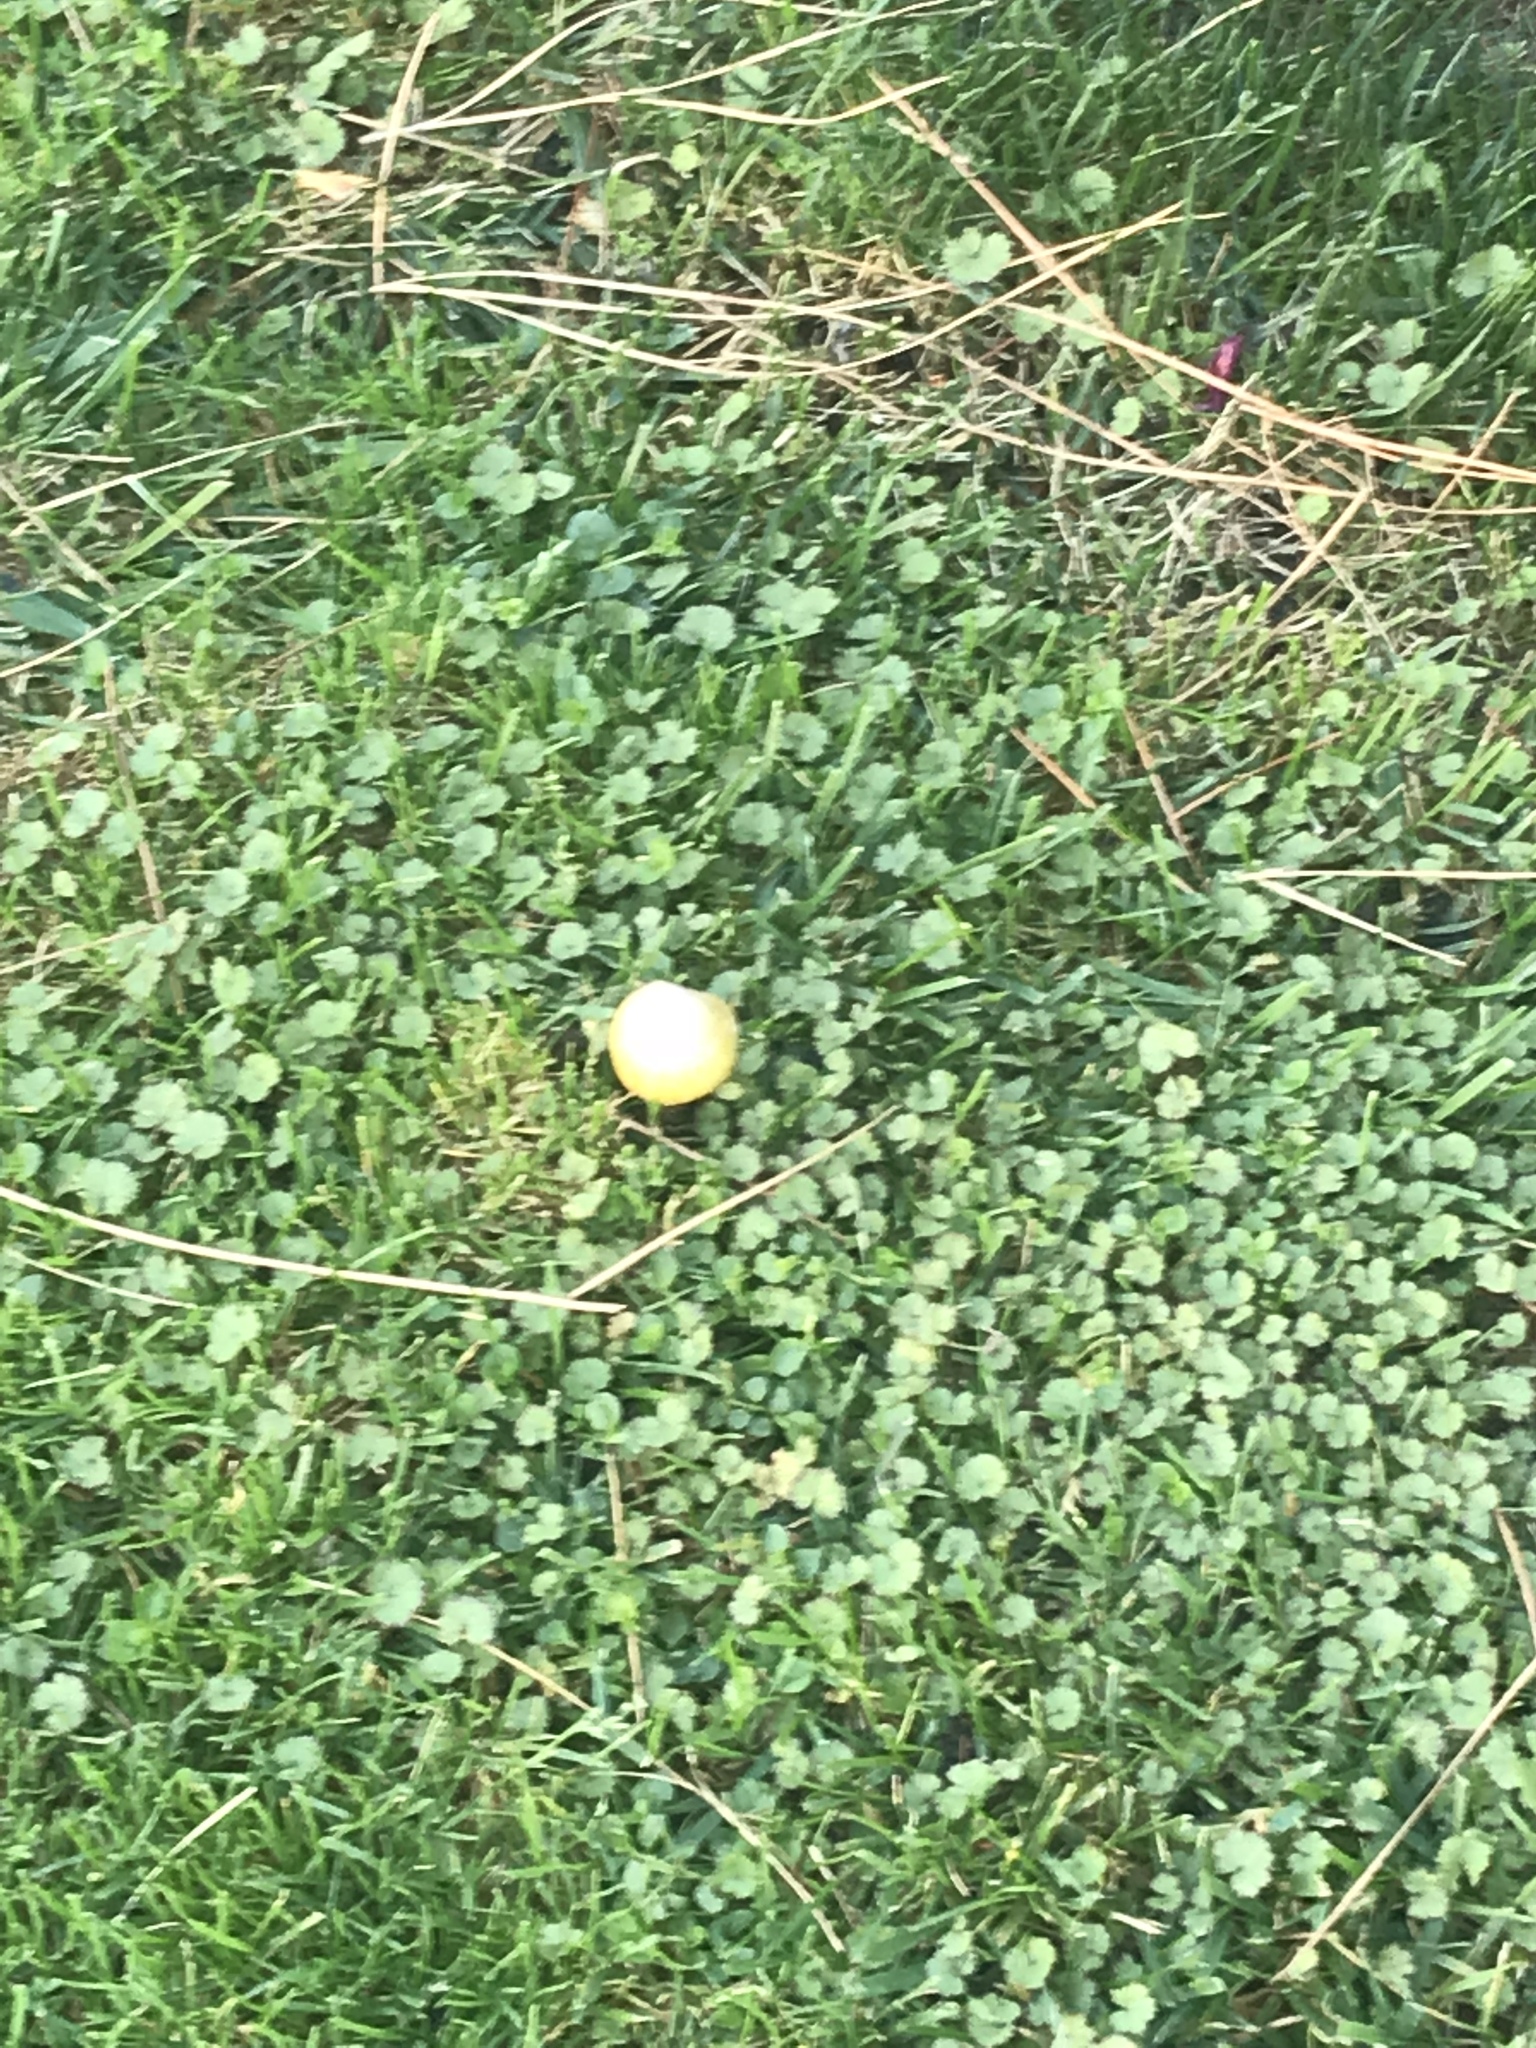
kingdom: Fungi
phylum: Basidiomycota
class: Agaricomycetes
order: Agaricales
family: Bolbitiaceae
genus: Bolbitius
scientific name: Bolbitius titubans
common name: Yellow fieldcap
